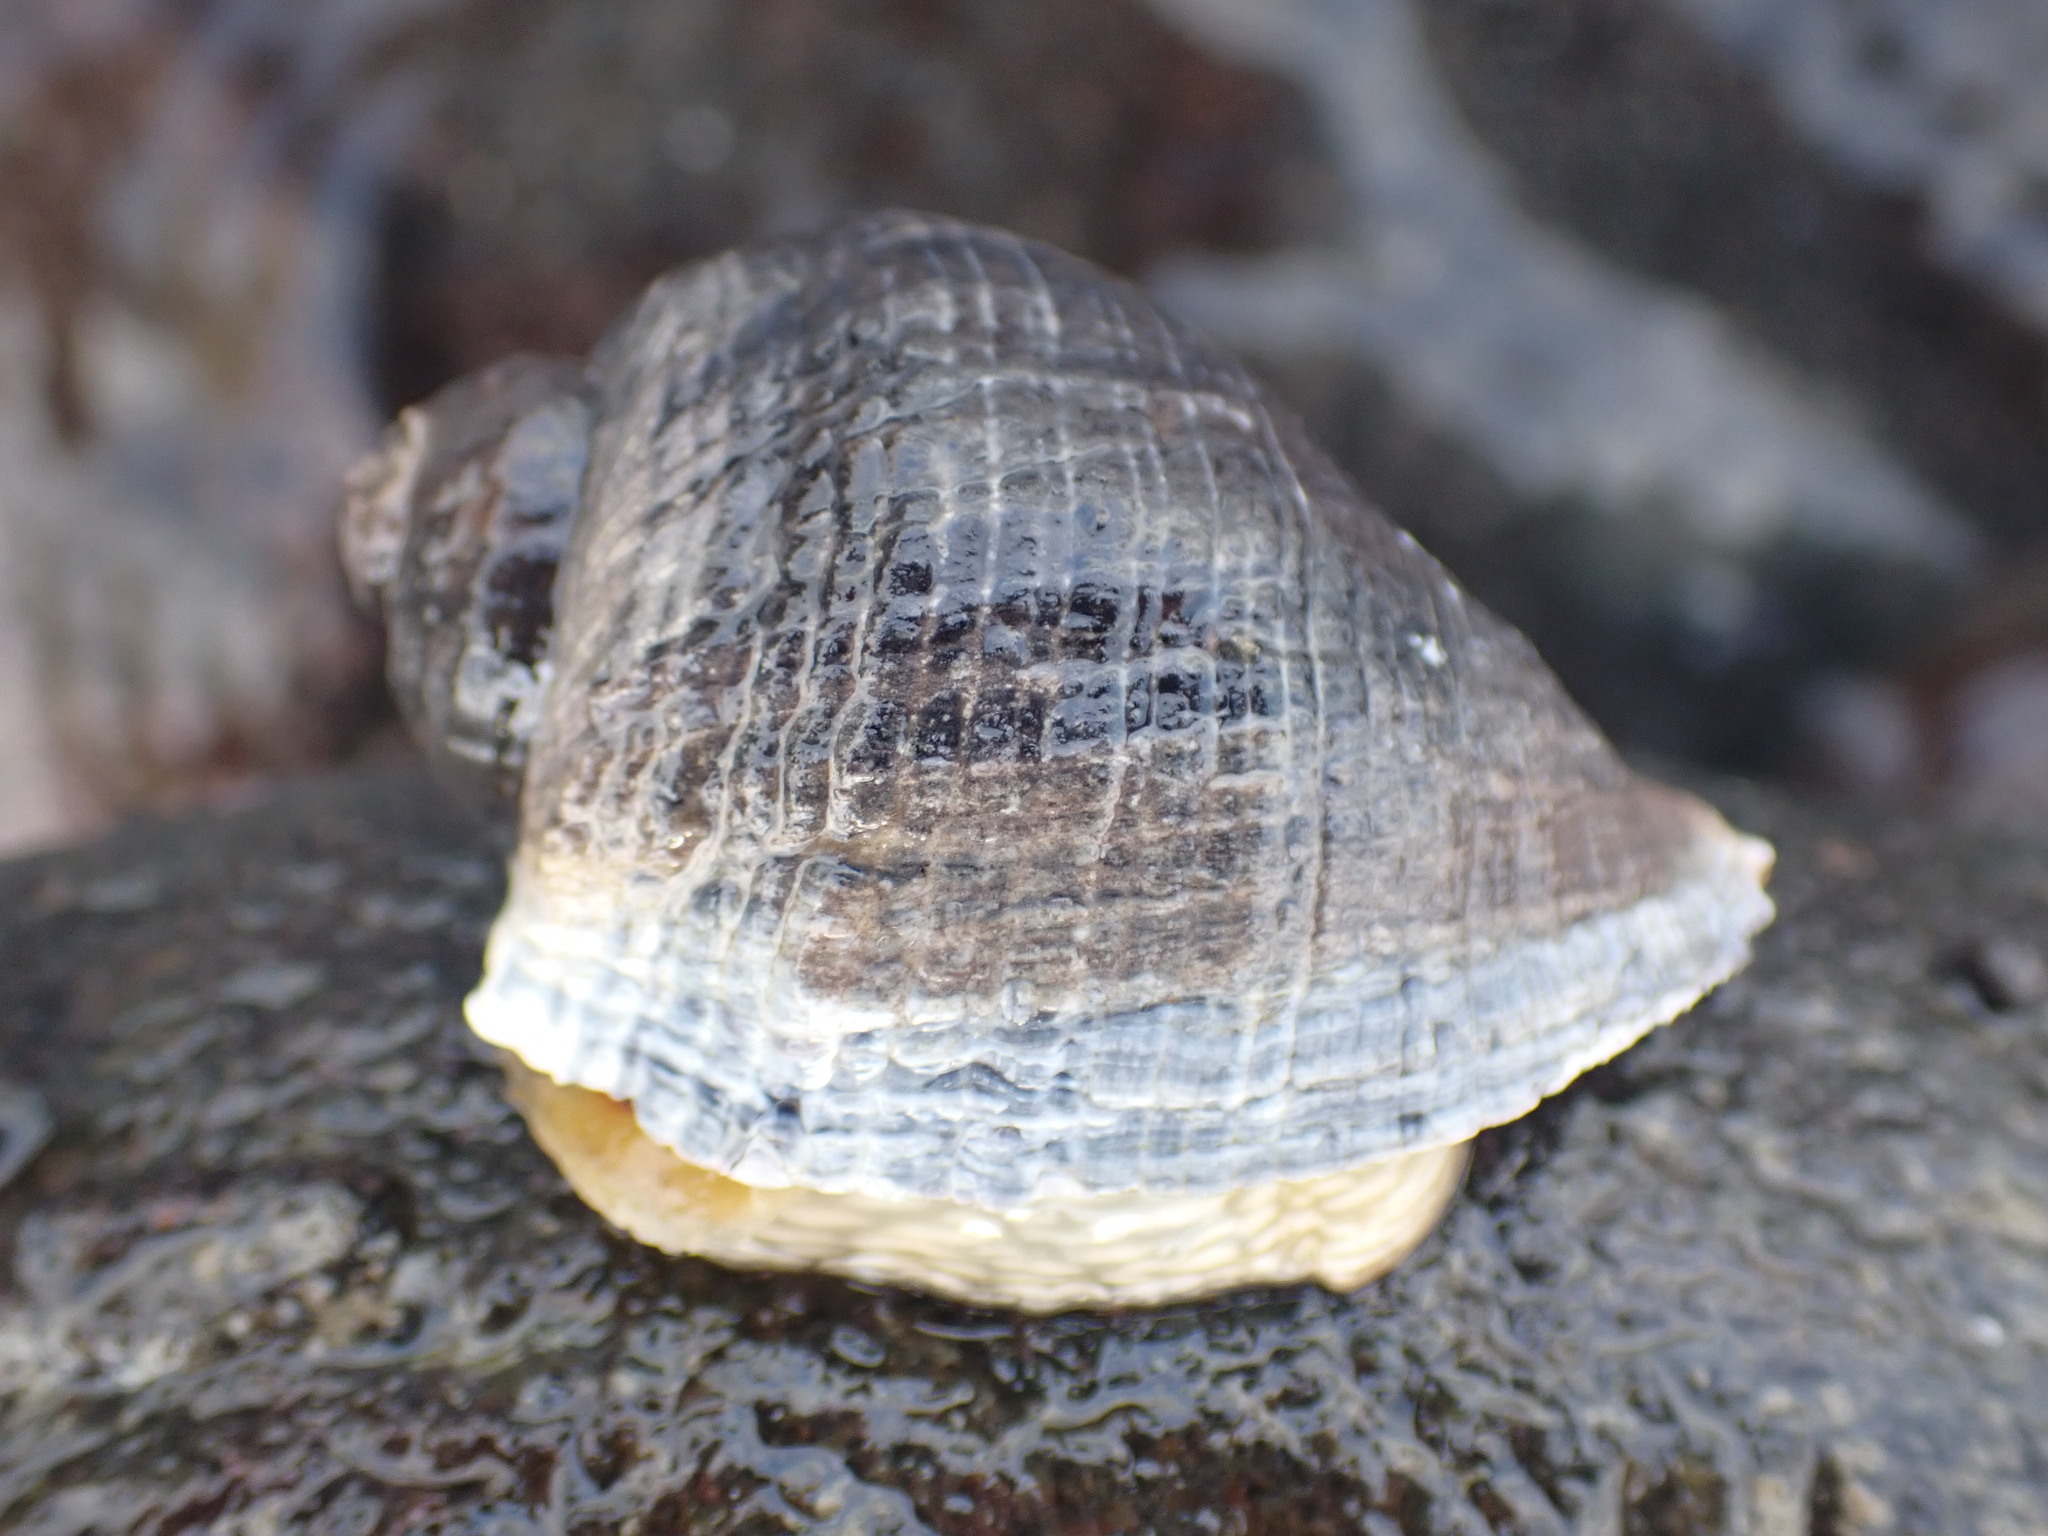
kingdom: Animalia
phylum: Mollusca
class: Gastropoda
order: Neogastropoda
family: Muricidae
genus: Haustrum
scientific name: Haustrum haustorium
